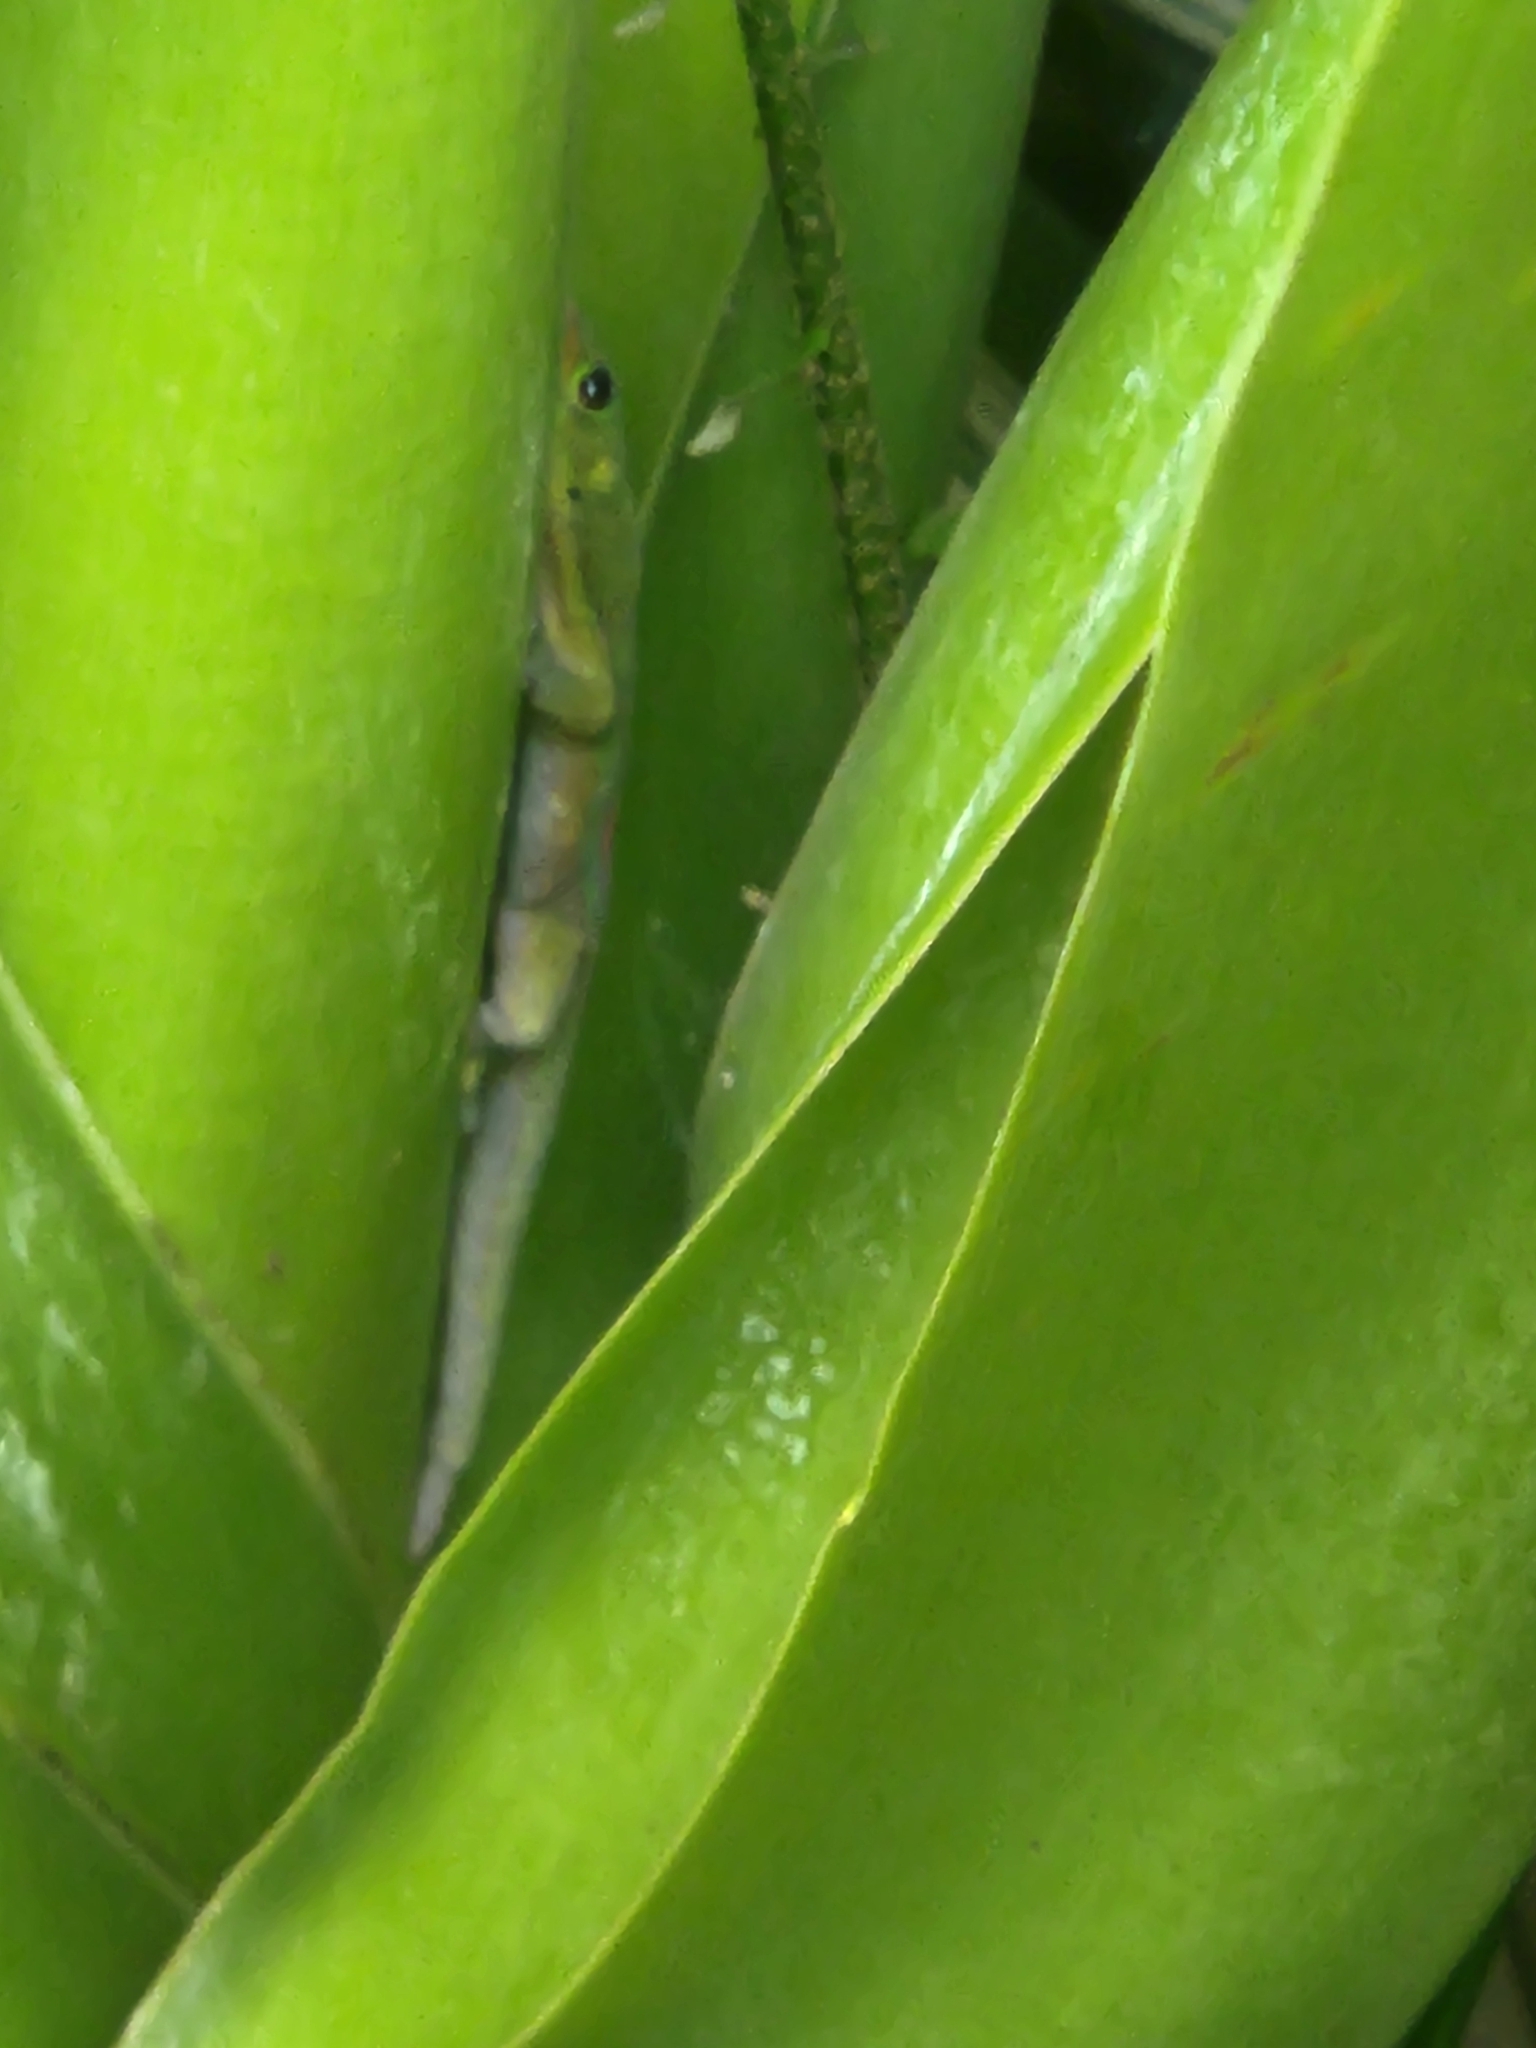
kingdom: Animalia
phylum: Chordata
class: Squamata
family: Gekkonidae
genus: Phelsuma
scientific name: Phelsuma laticauda
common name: Gold dust day gecko
